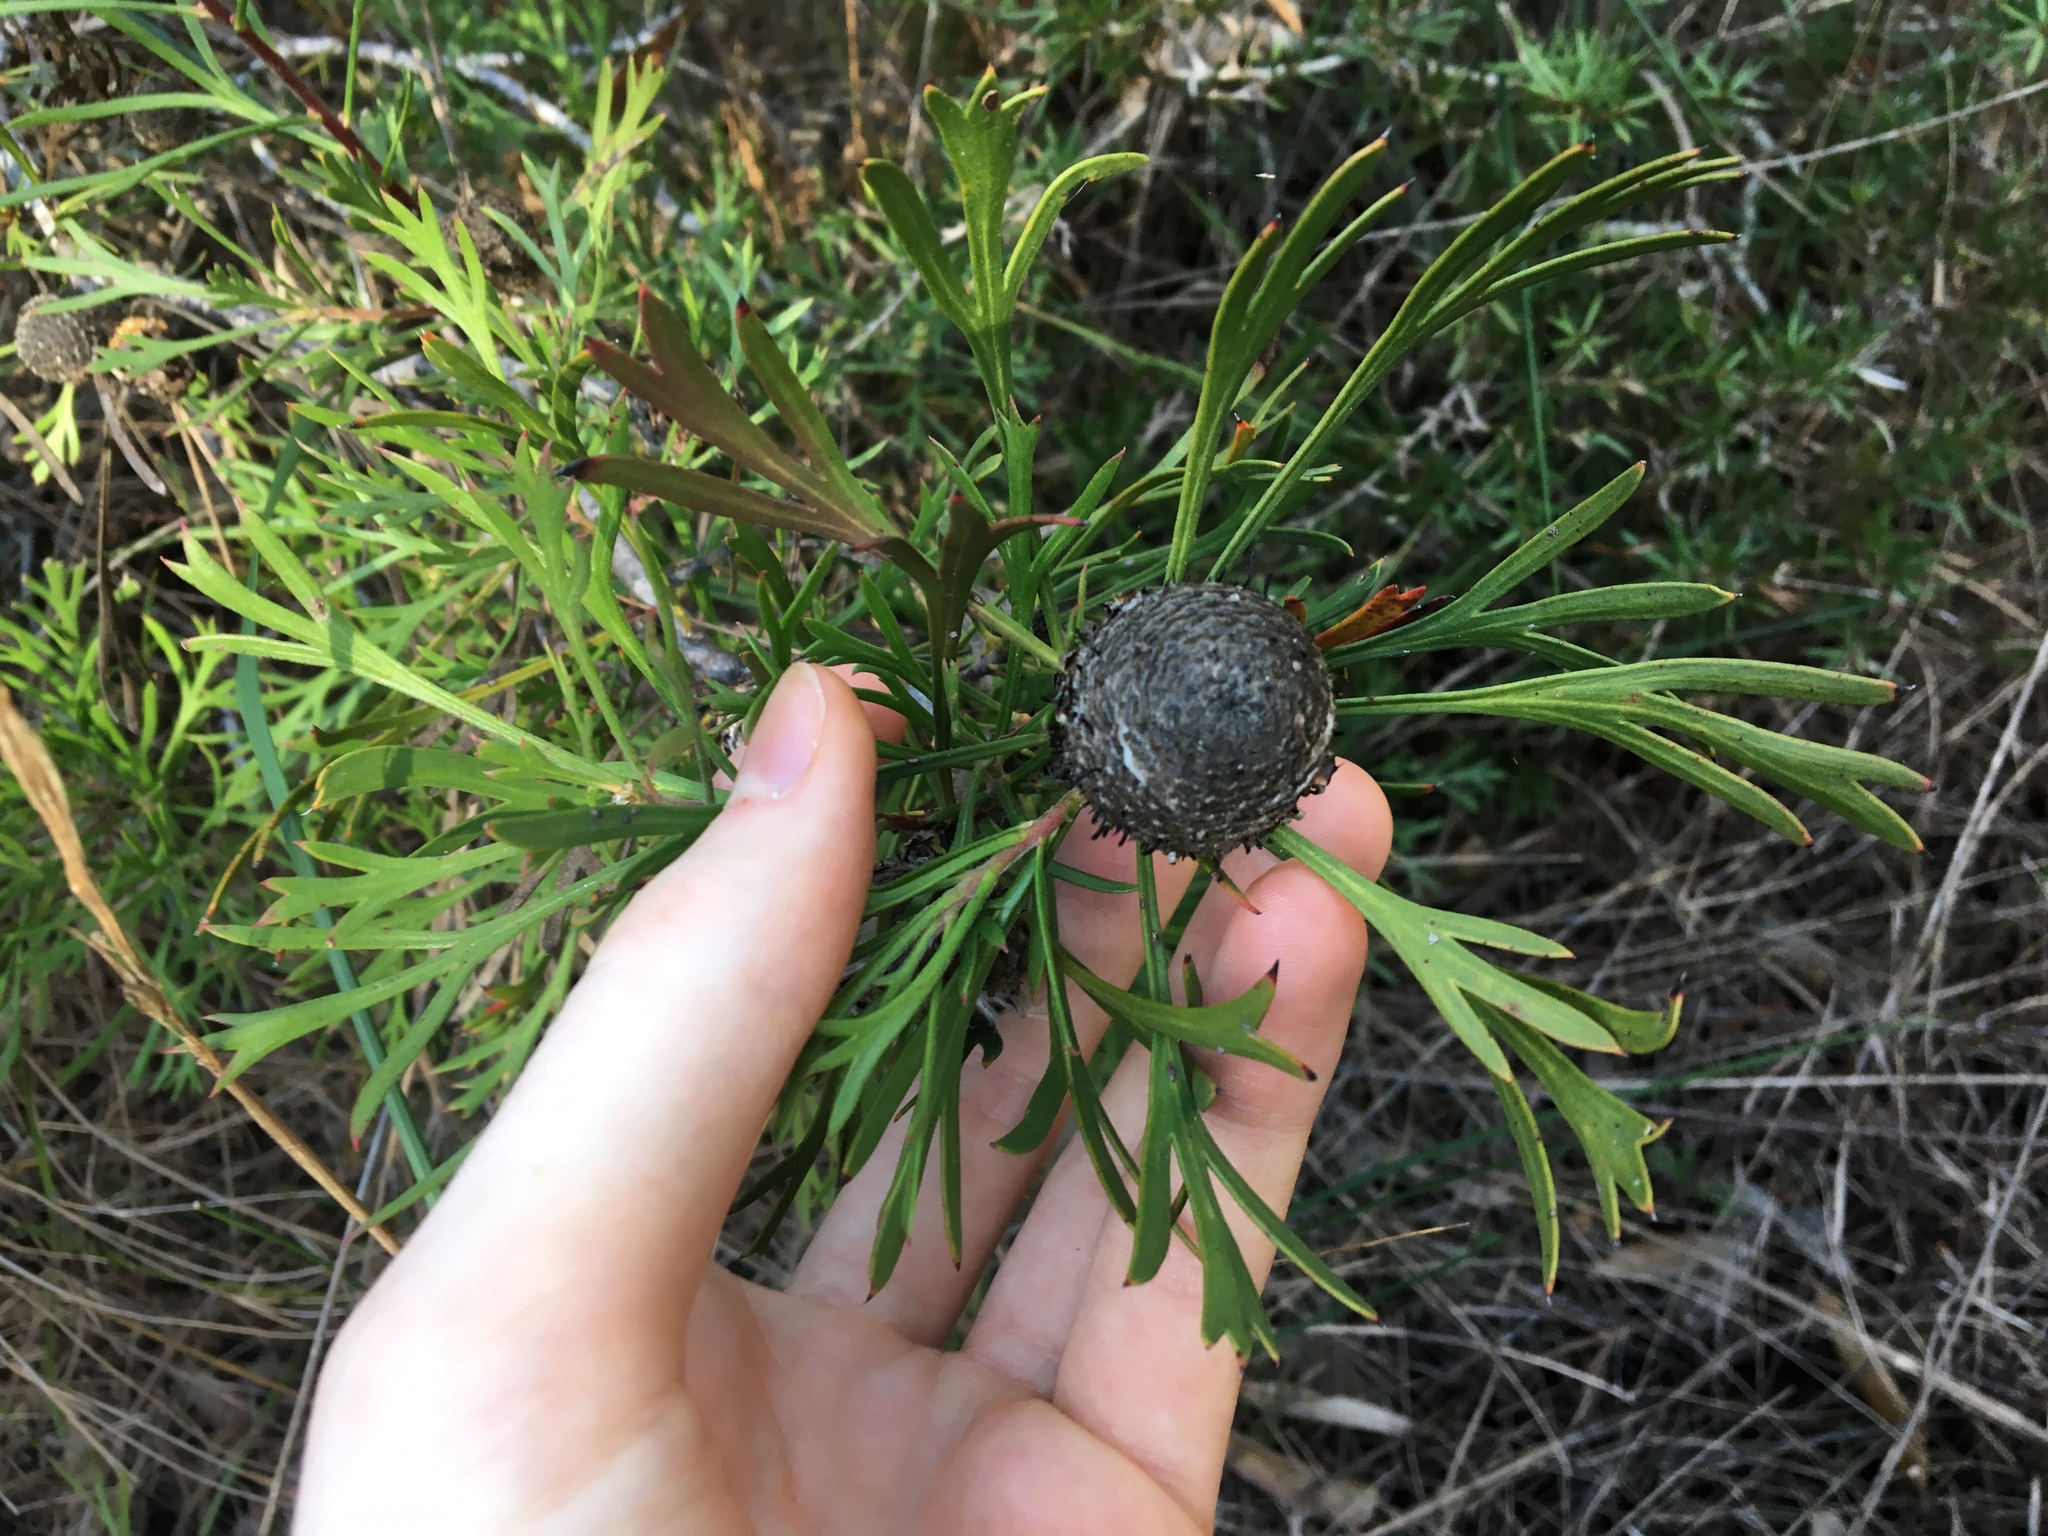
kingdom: Plantae
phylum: Tracheophyta
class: Magnoliopsida
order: Proteales
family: Proteaceae
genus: Isopogon
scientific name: Isopogon anemonifolius
